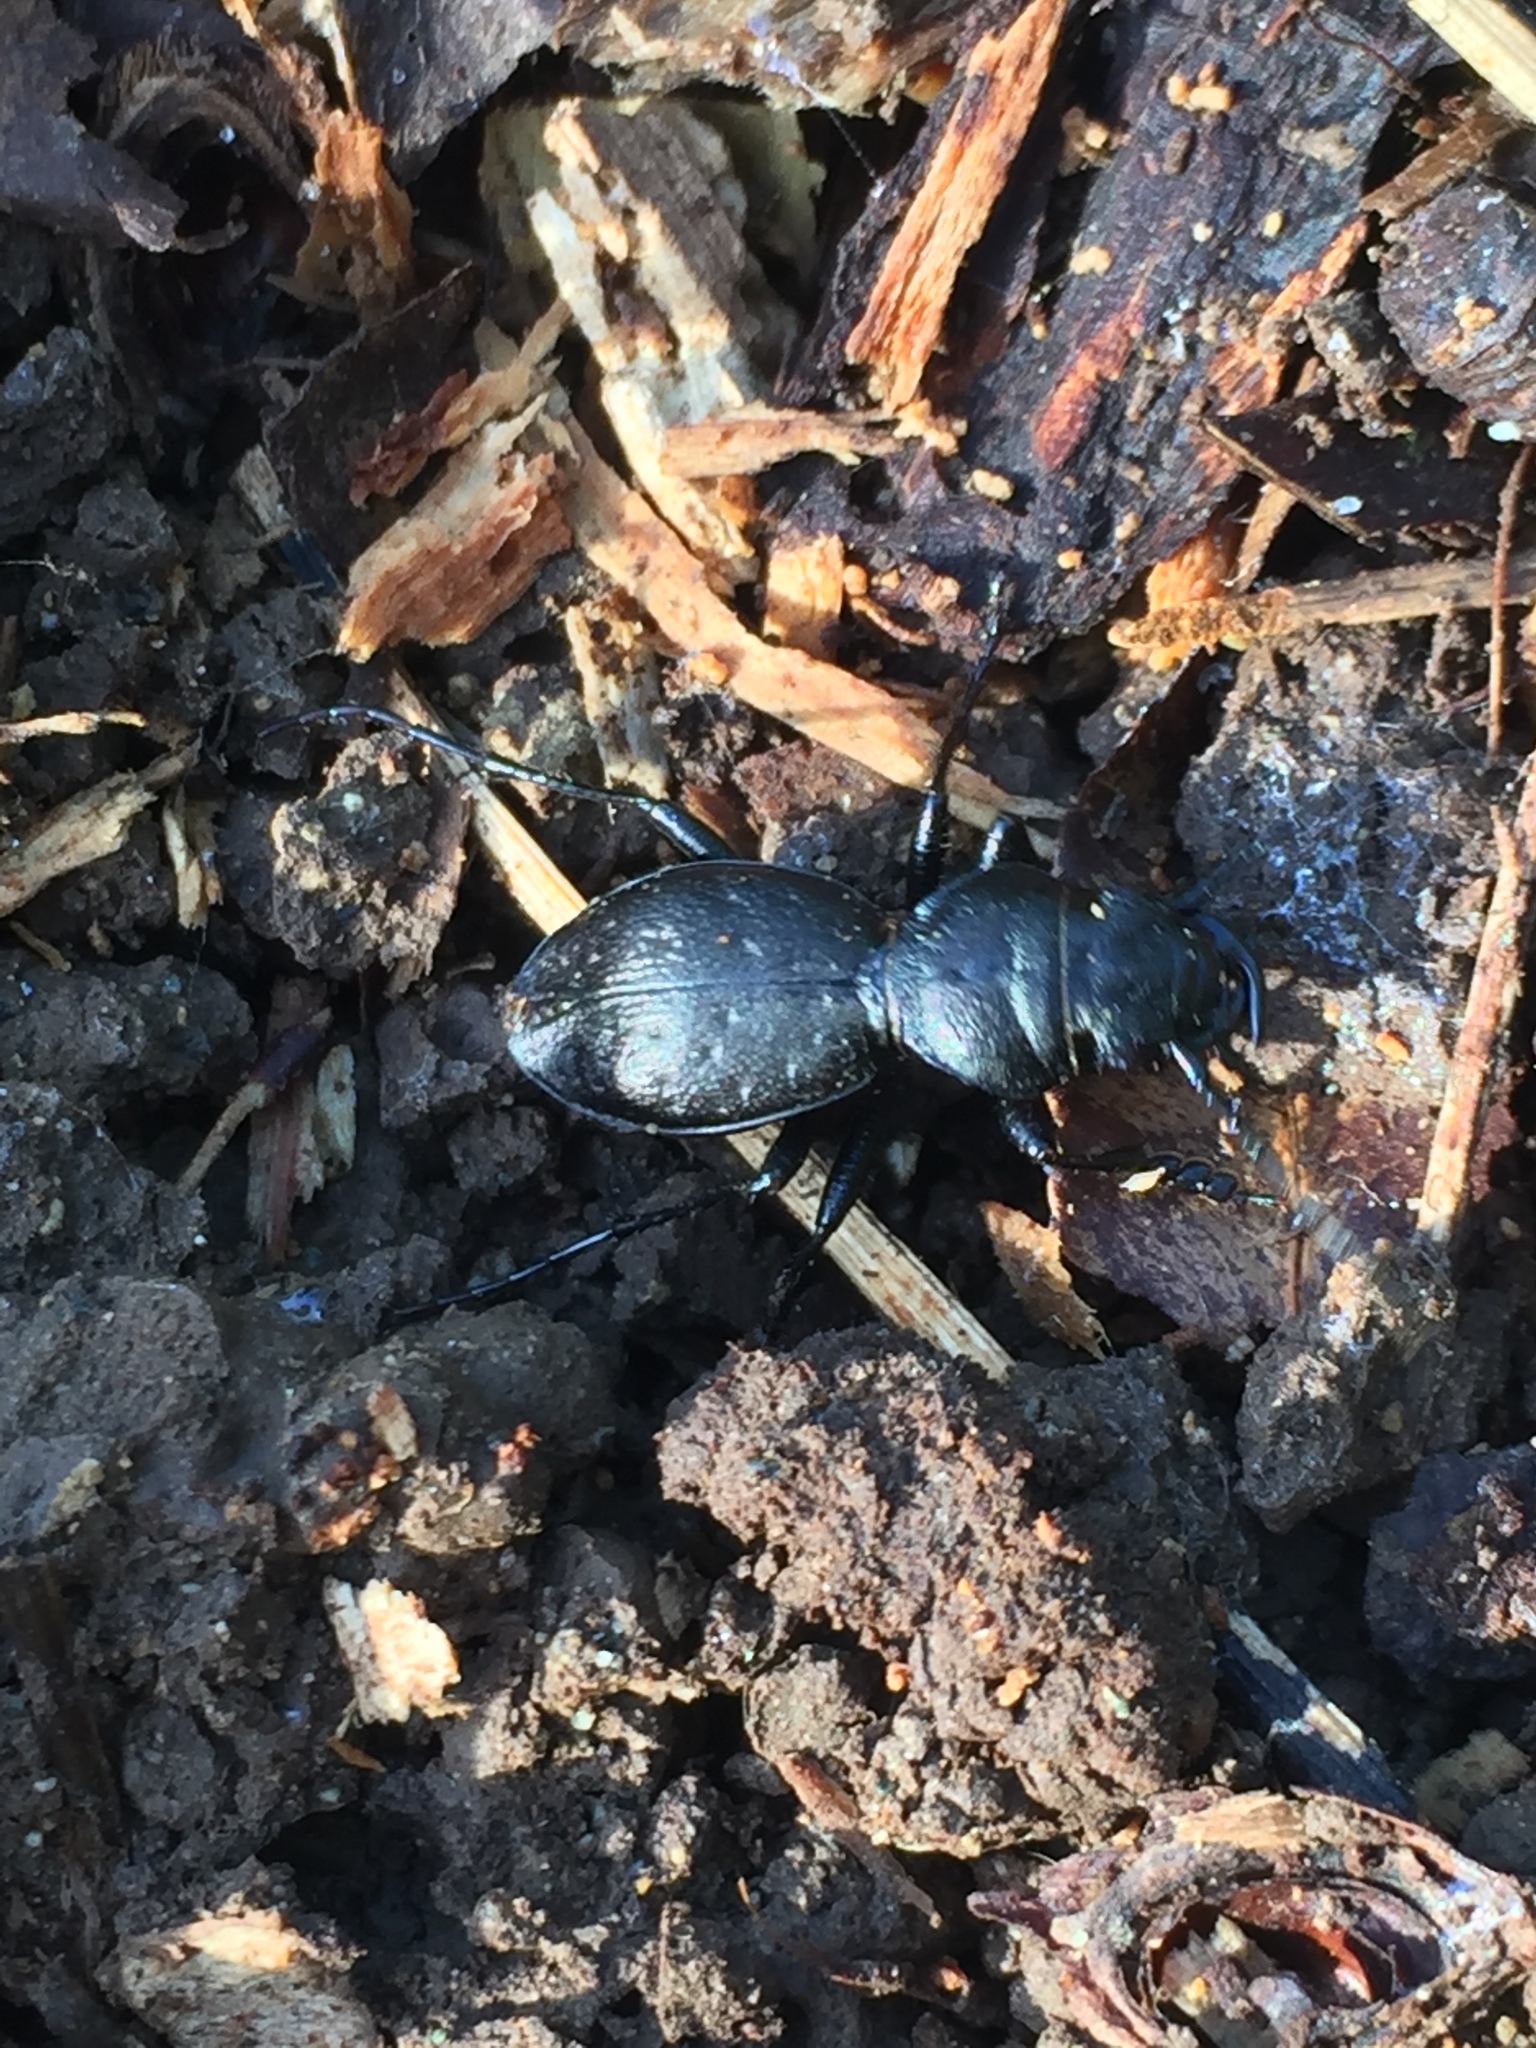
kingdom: Animalia
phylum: Arthropoda
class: Insecta
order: Coleoptera
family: Carabidae
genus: Omus
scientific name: Omus dejeanii
